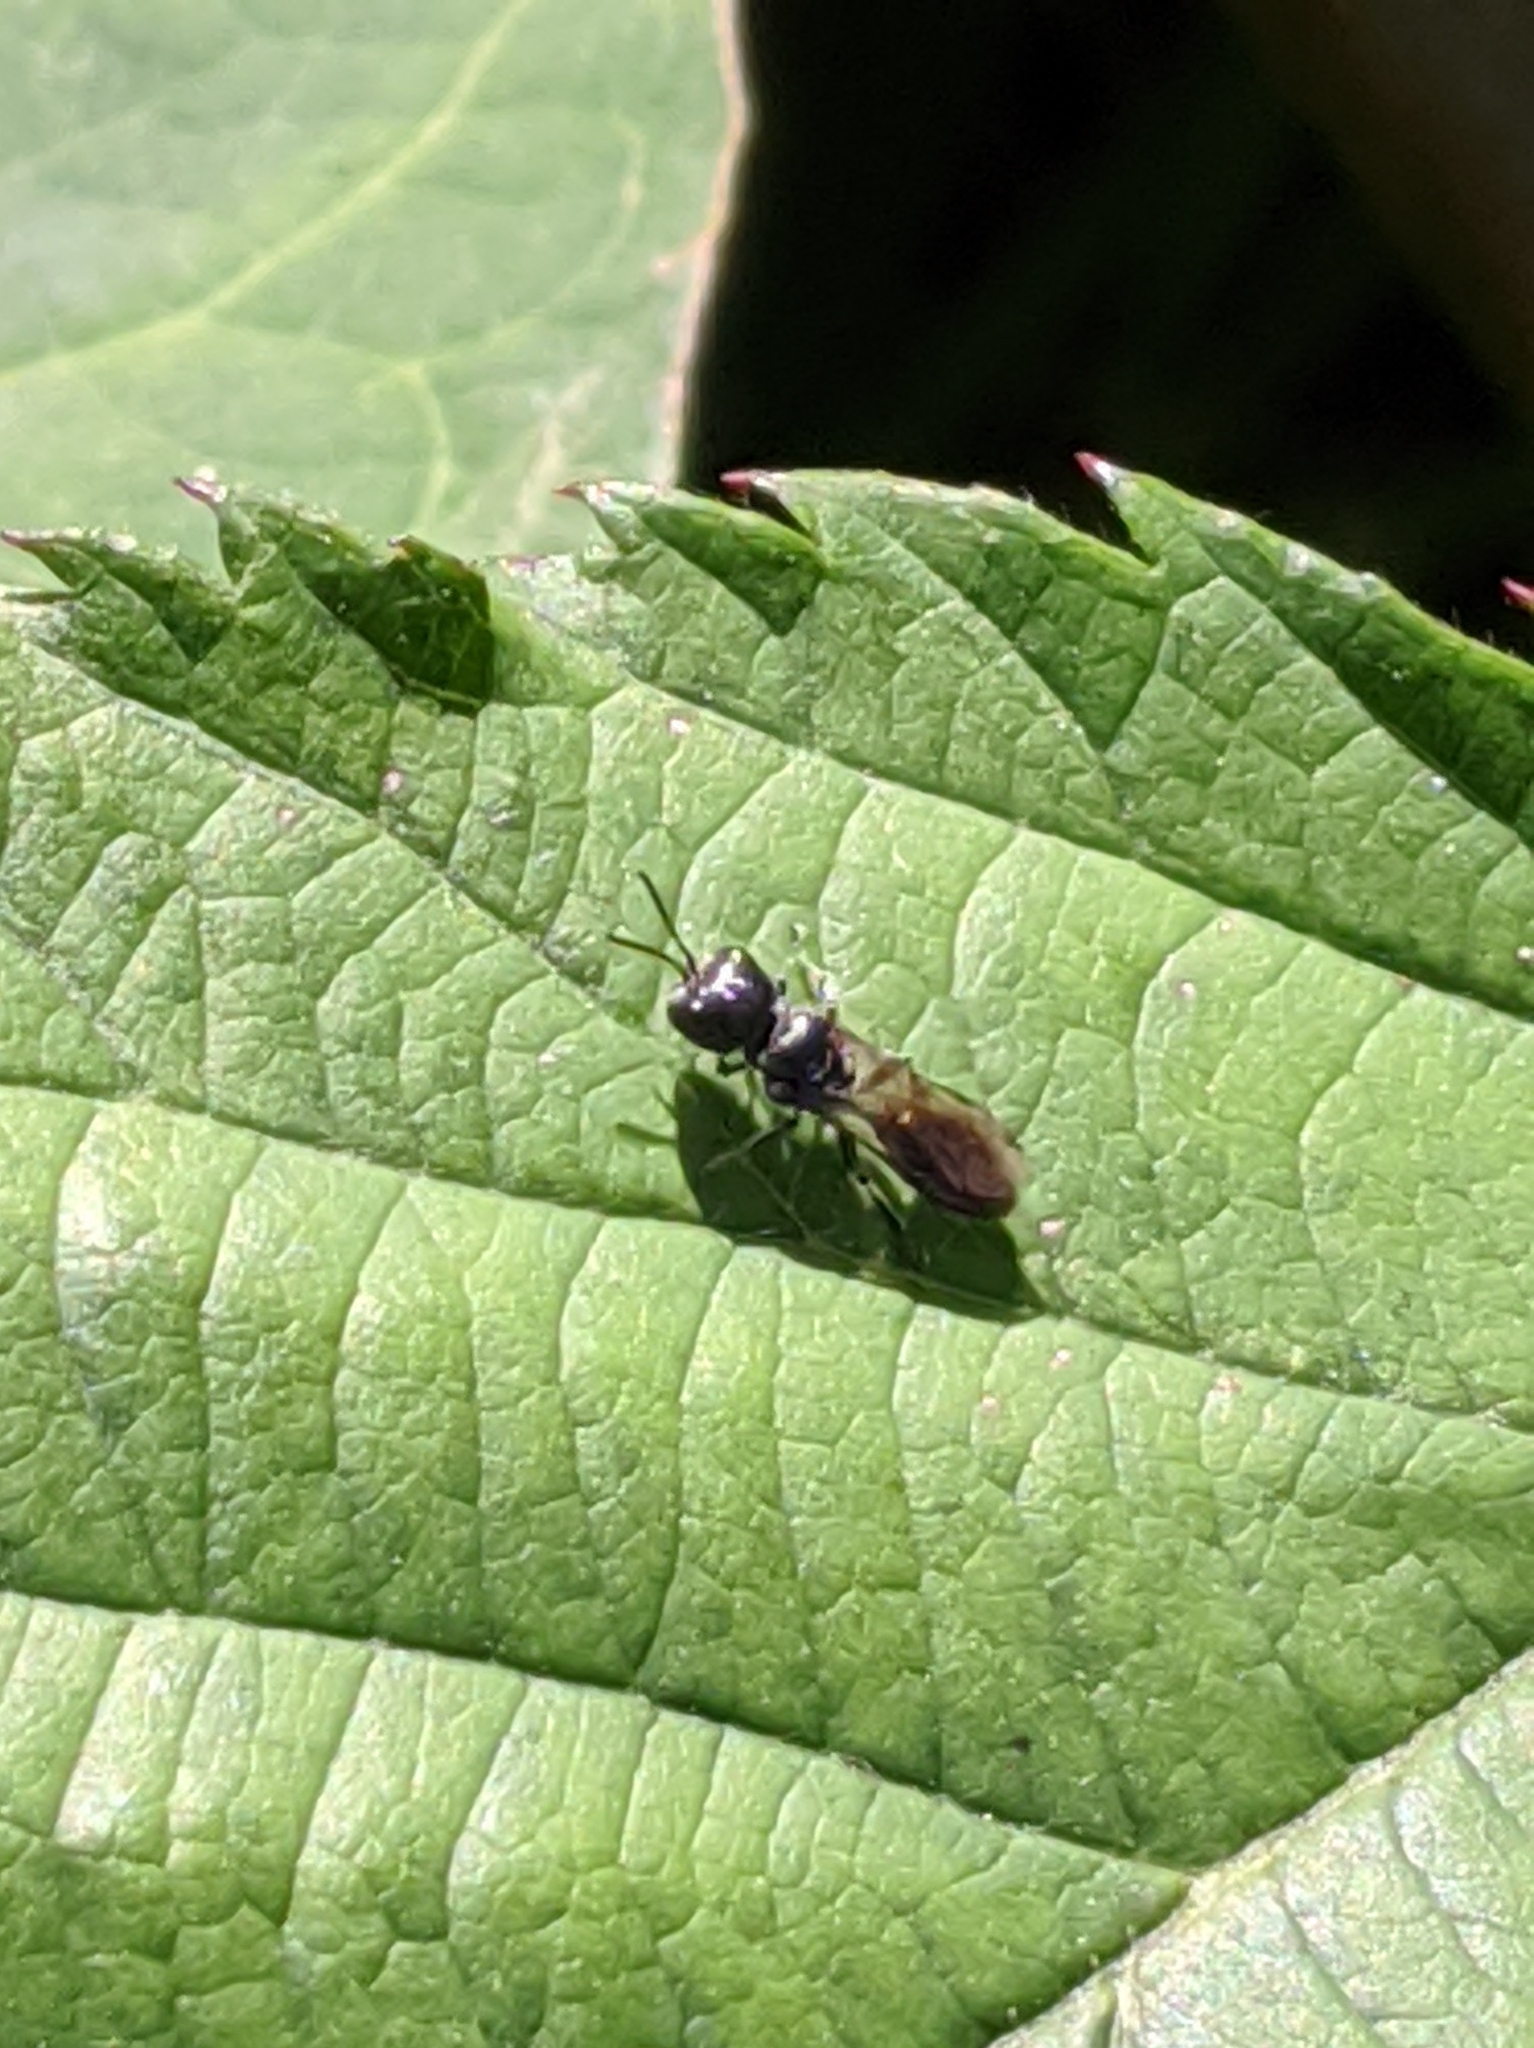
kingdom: Animalia
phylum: Arthropoda
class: Insecta
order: Hymenoptera
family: Crabronidae
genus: Pemphredon
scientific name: Pemphredon
